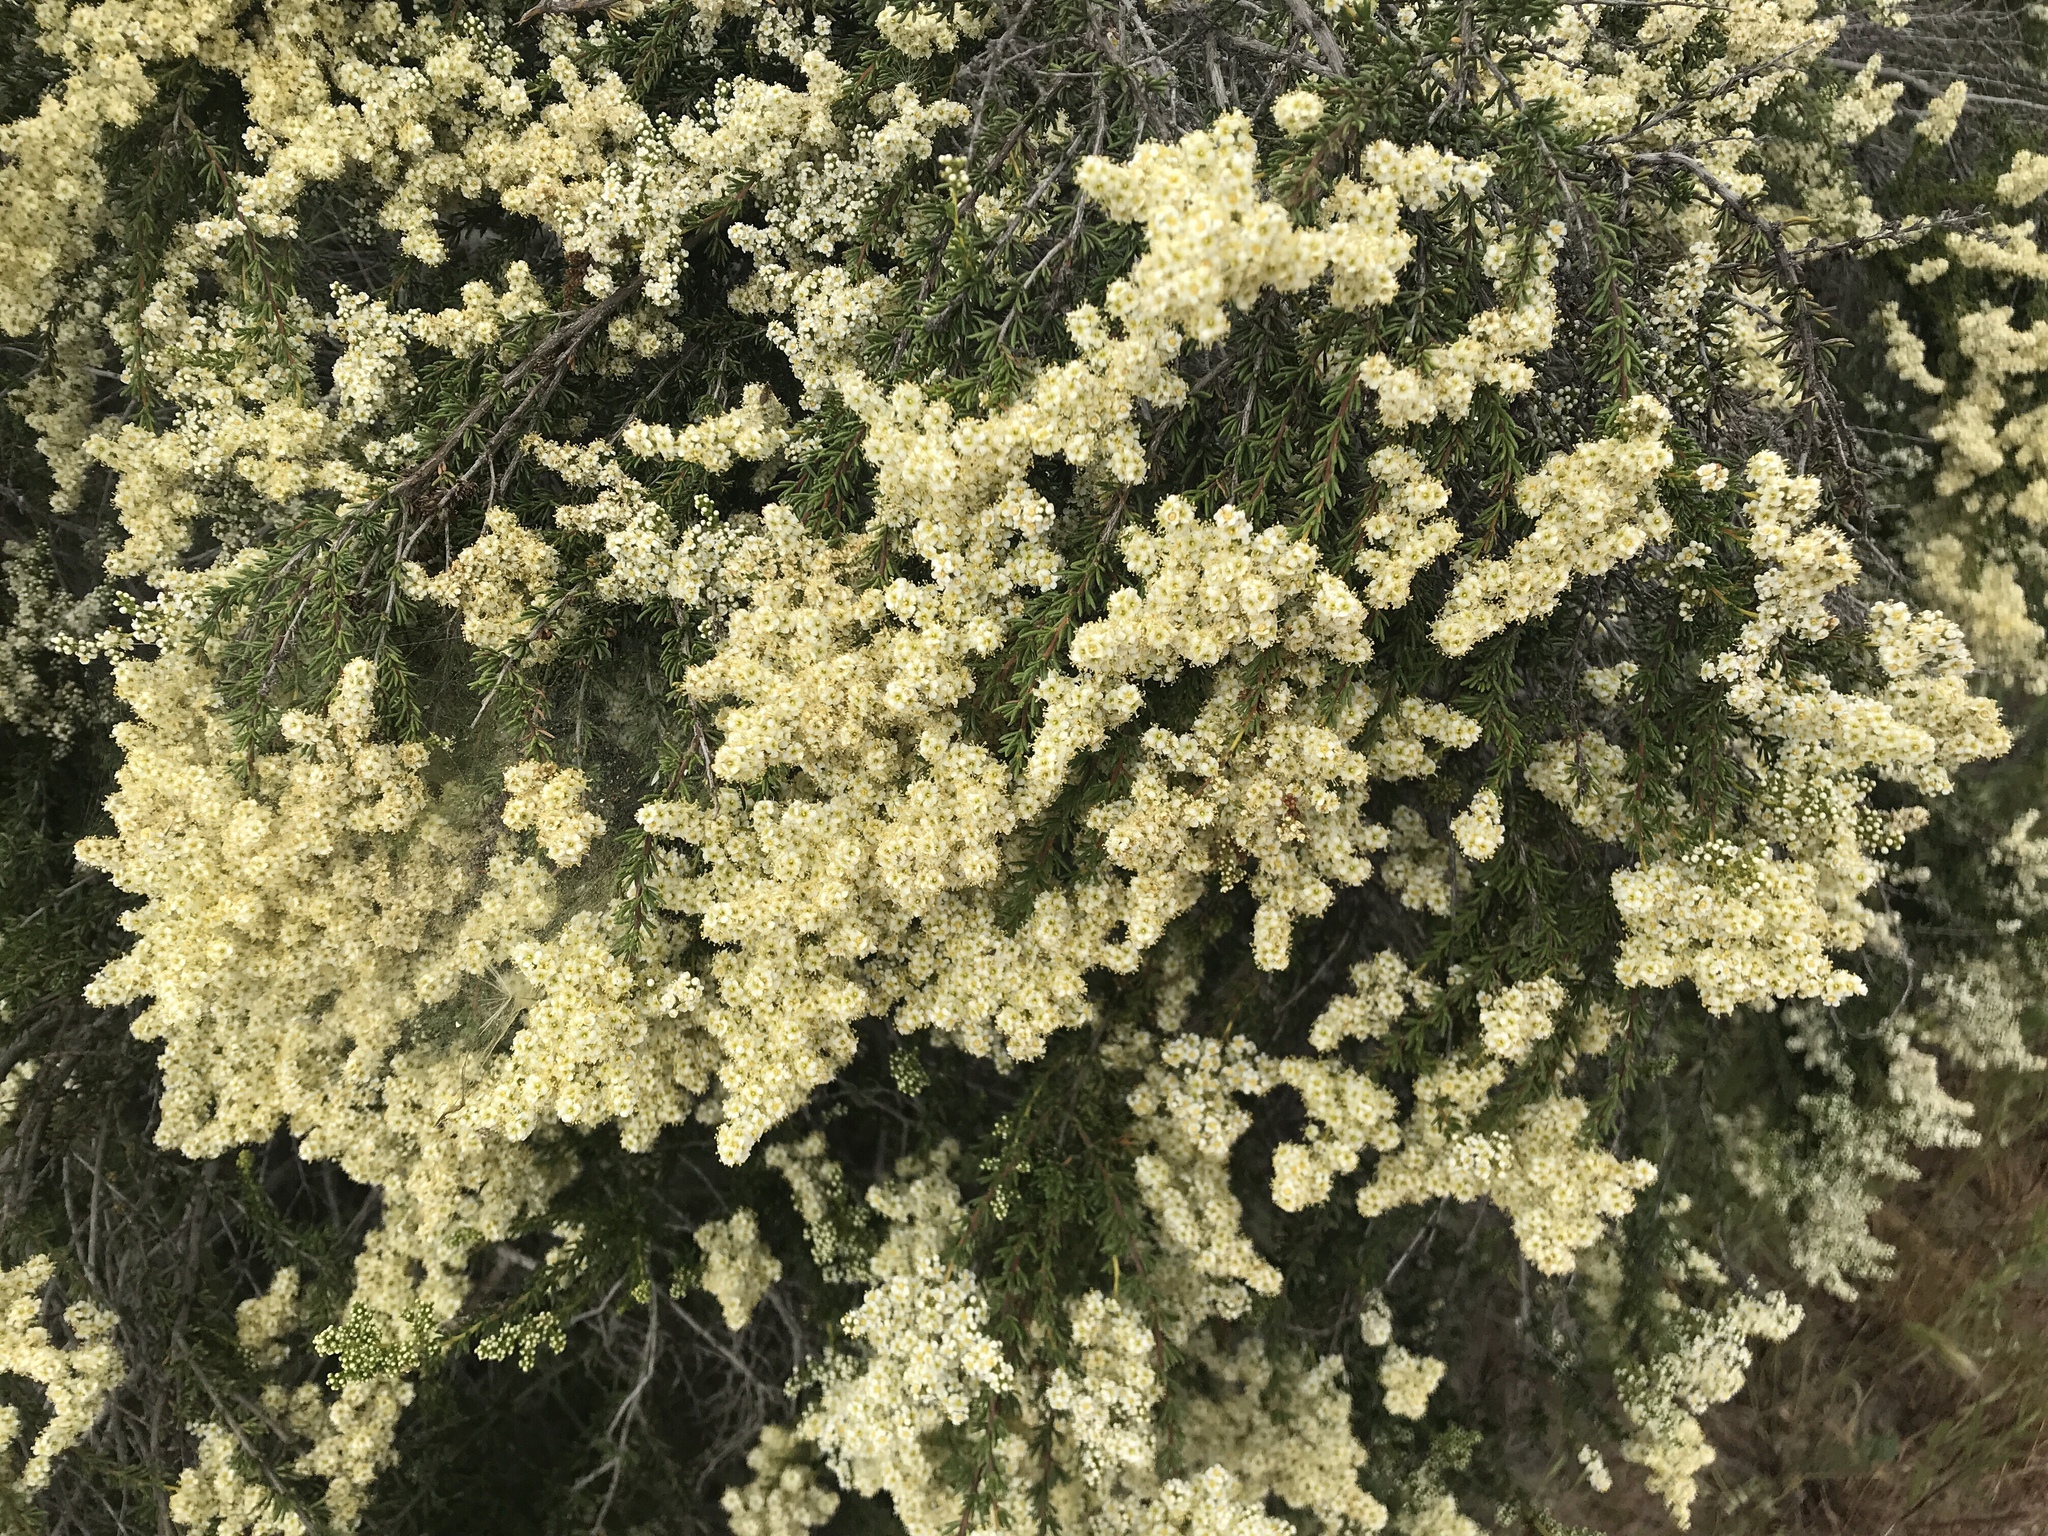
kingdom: Plantae
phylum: Tracheophyta
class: Magnoliopsida
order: Rosales
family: Rosaceae
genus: Adenostoma
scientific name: Adenostoma fasciculatum
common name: Chamise
